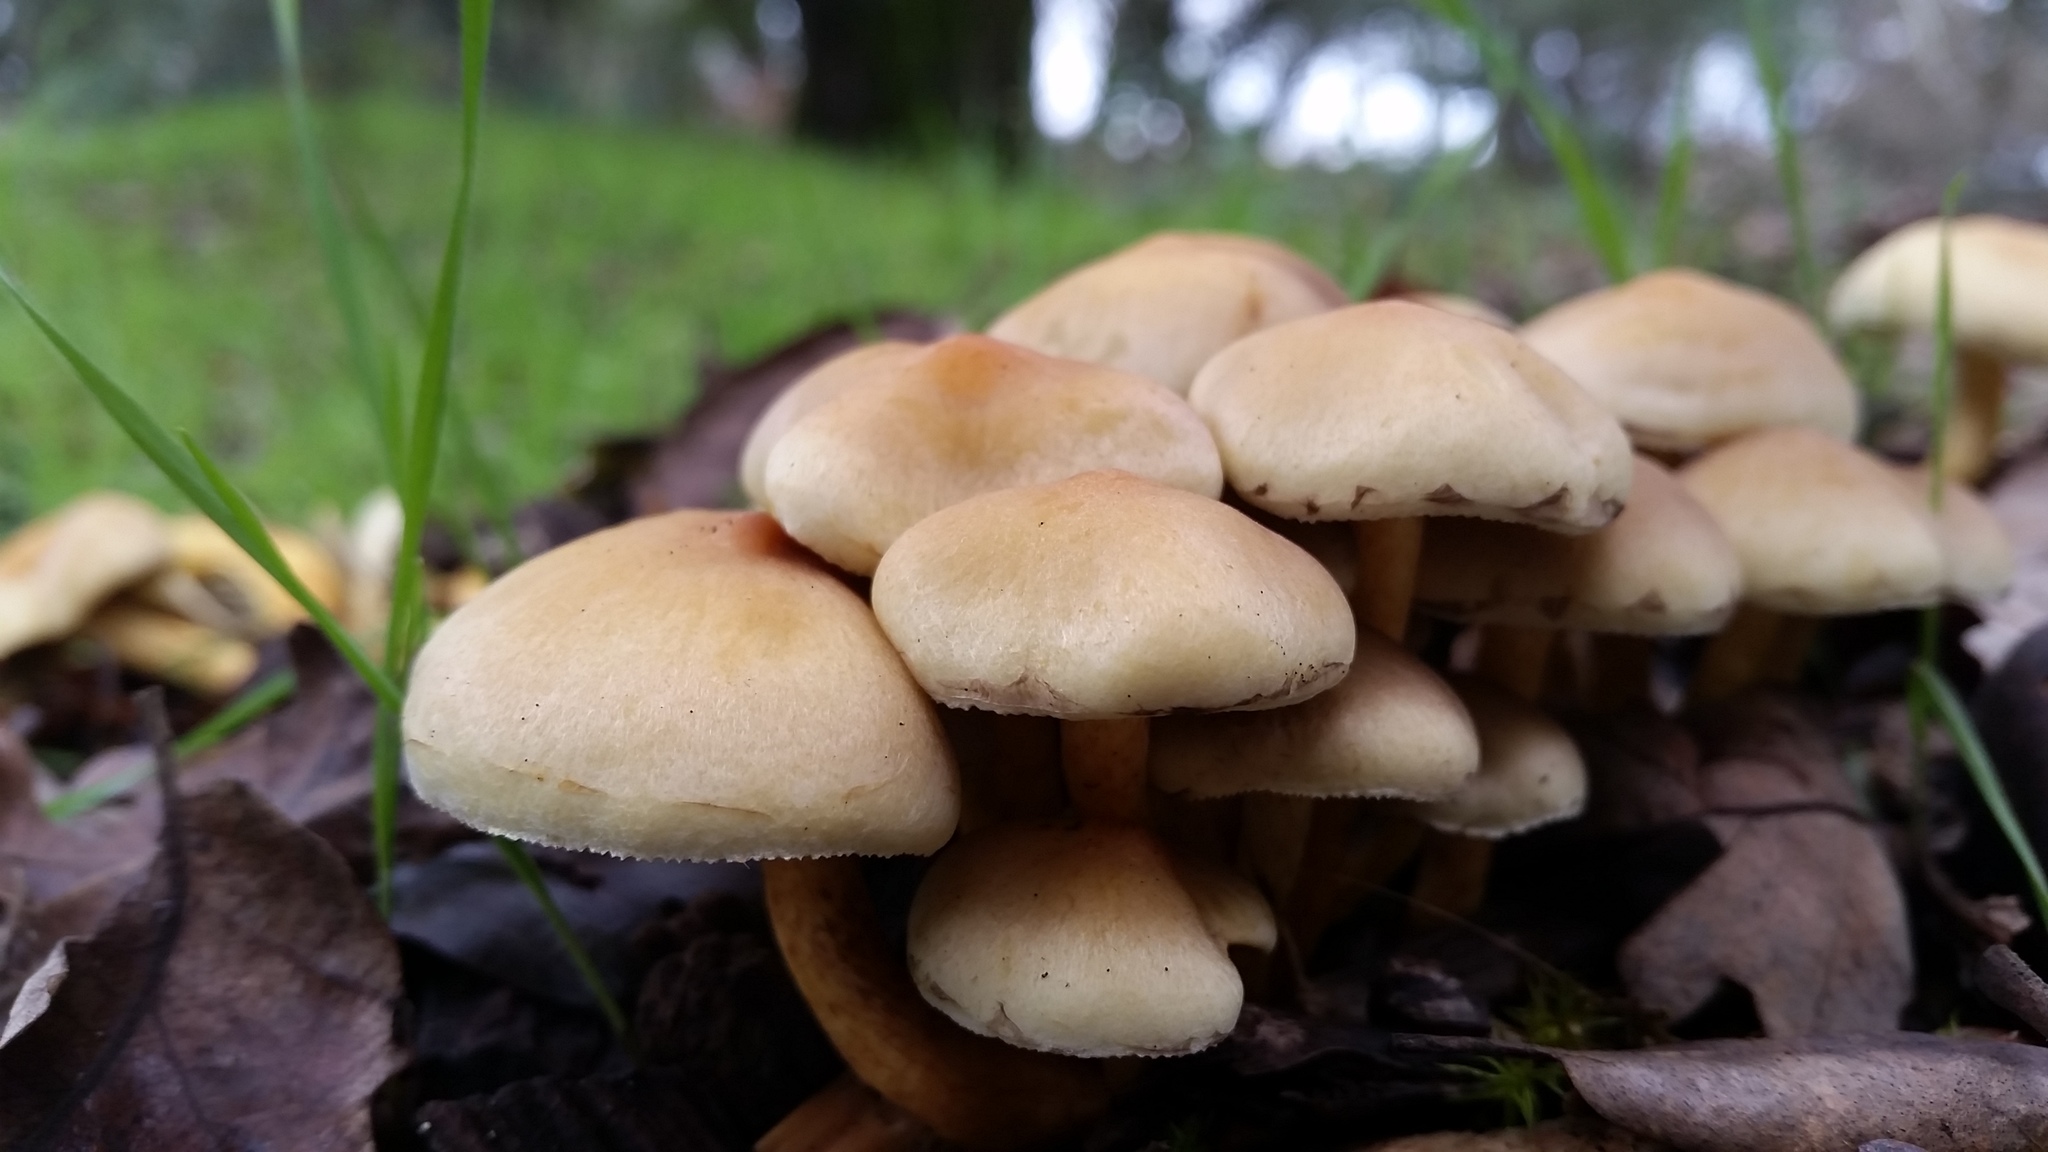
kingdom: Fungi
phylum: Basidiomycota
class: Agaricomycetes
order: Agaricales
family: Strophariaceae
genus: Hypholoma
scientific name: Hypholoma fasciculare
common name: Sulphur tuft
